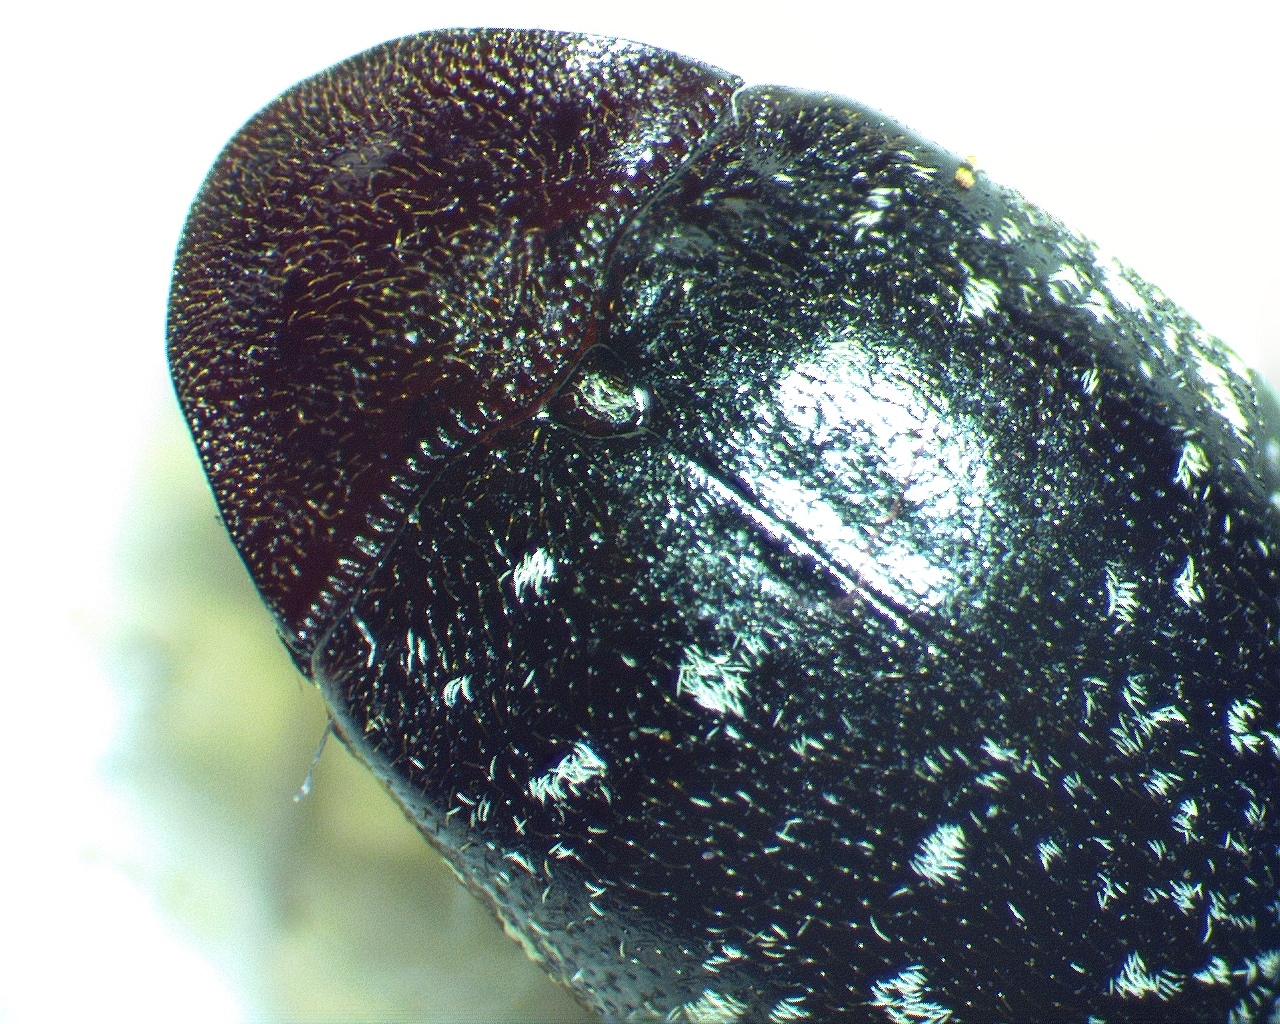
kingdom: Animalia
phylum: Arthropoda
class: Insecta
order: Coleoptera
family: Chelonariidae
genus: Chelonarium
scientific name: Chelonarium lecontei
